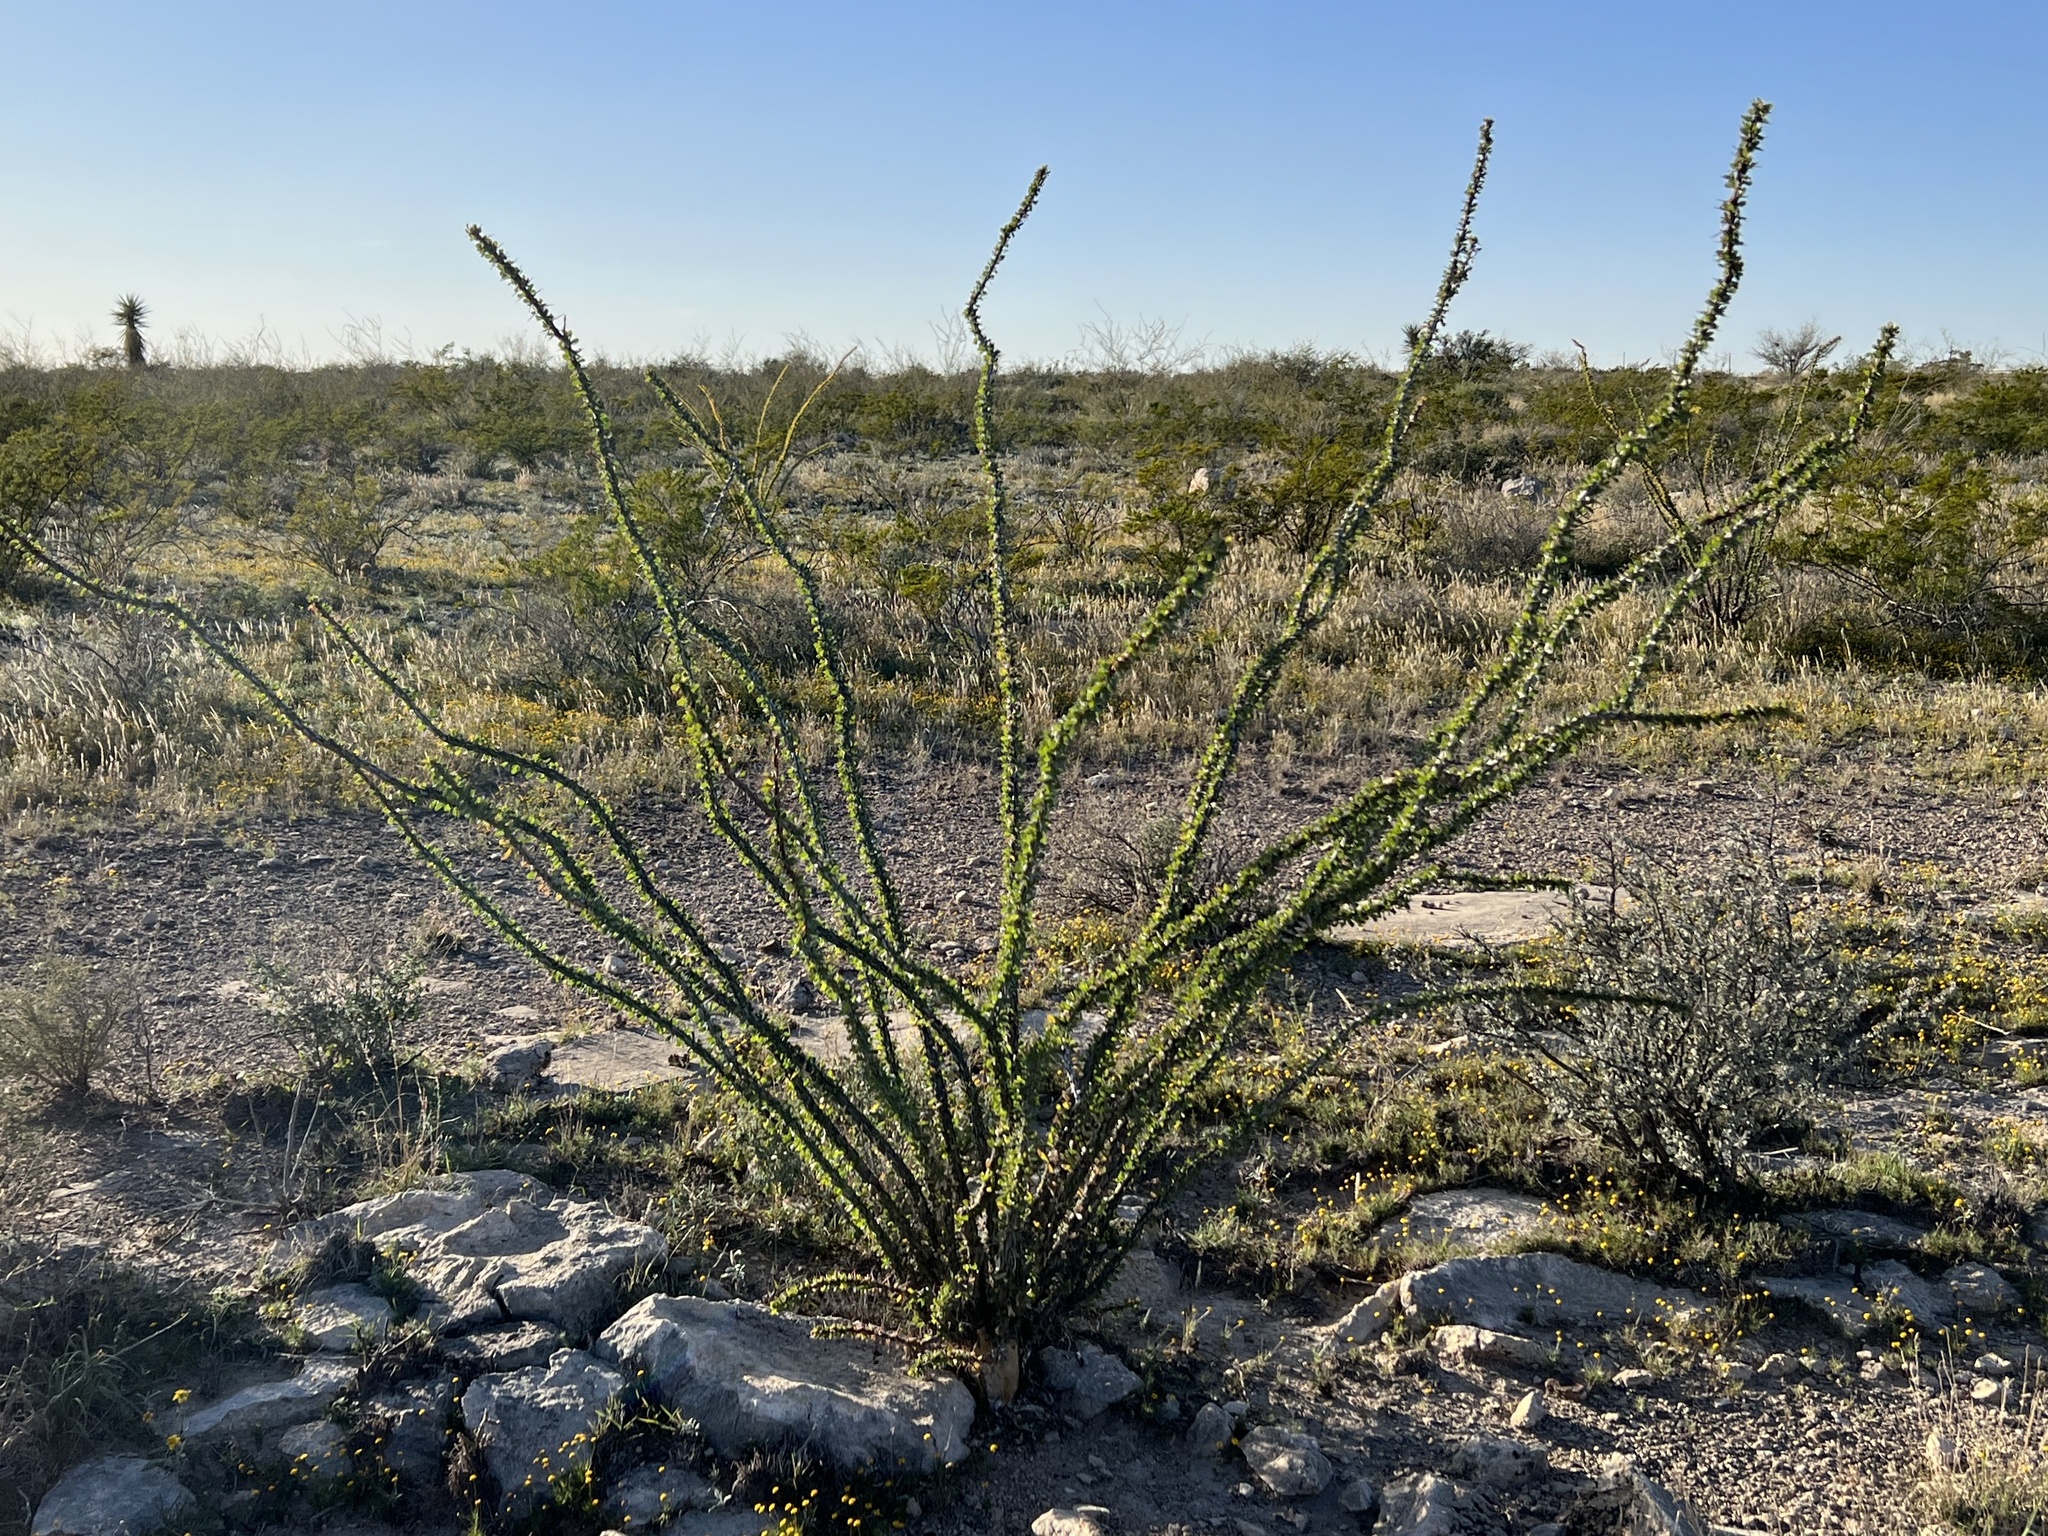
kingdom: Plantae
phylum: Tracheophyta
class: Magnoliopsida
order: Ericales
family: Fouquieriaceae
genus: Fouquieria
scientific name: Fouquieria splendens
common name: Vine-cactus
